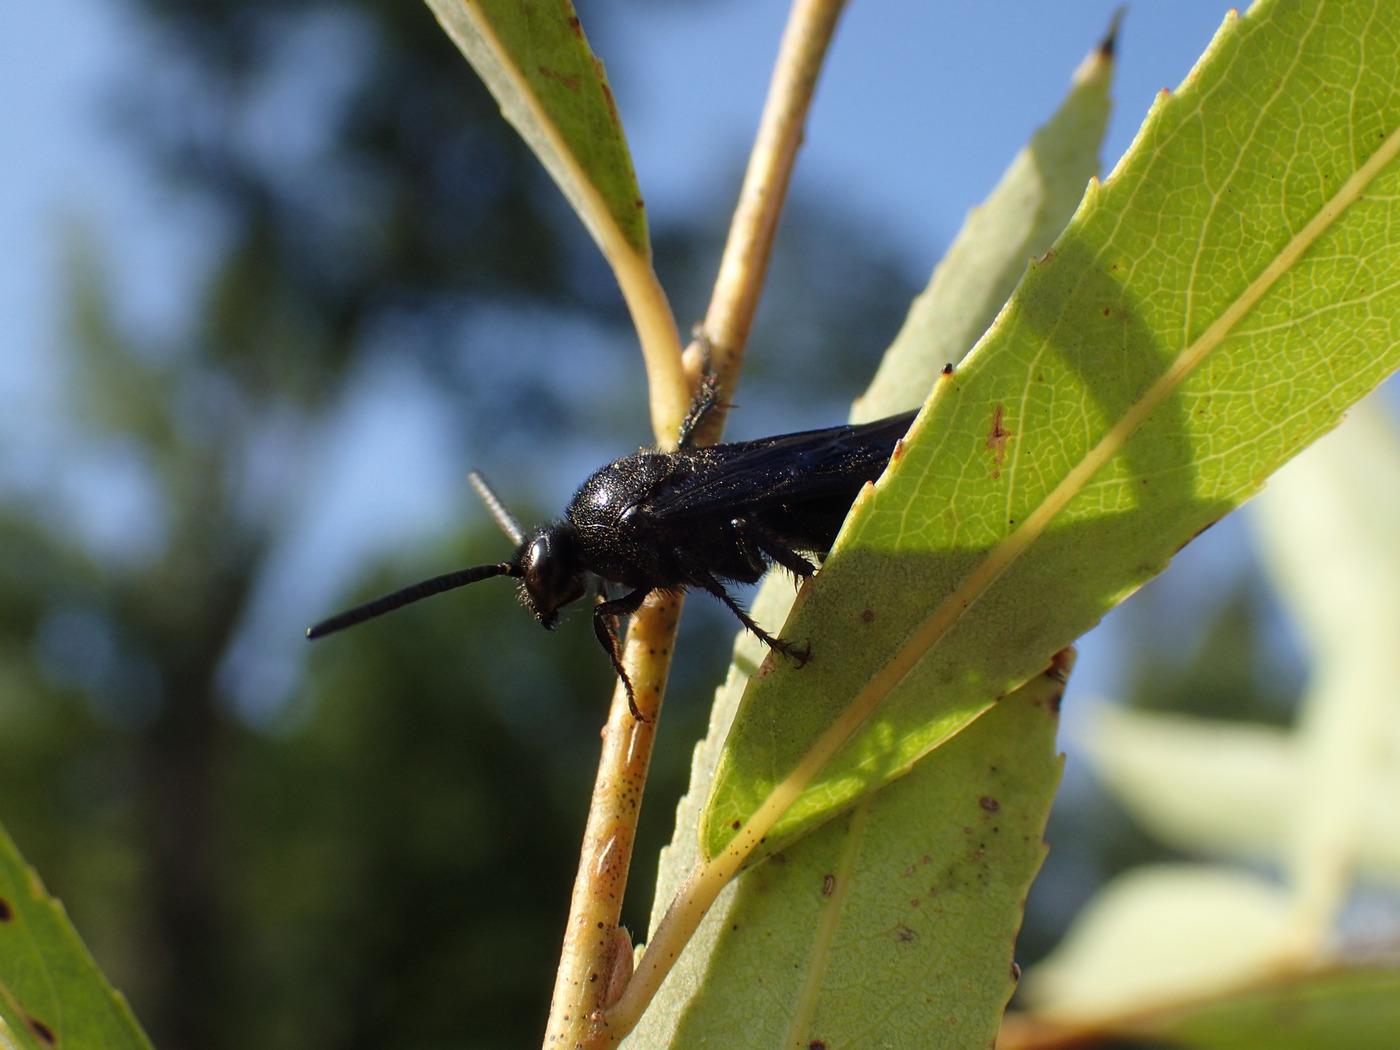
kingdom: Animalia
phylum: Arthropoda
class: Insecta
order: Hymenoptera
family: Scoliidae
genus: Scolia
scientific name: Scolia dubia
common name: Blue-winged scoliid wasp
